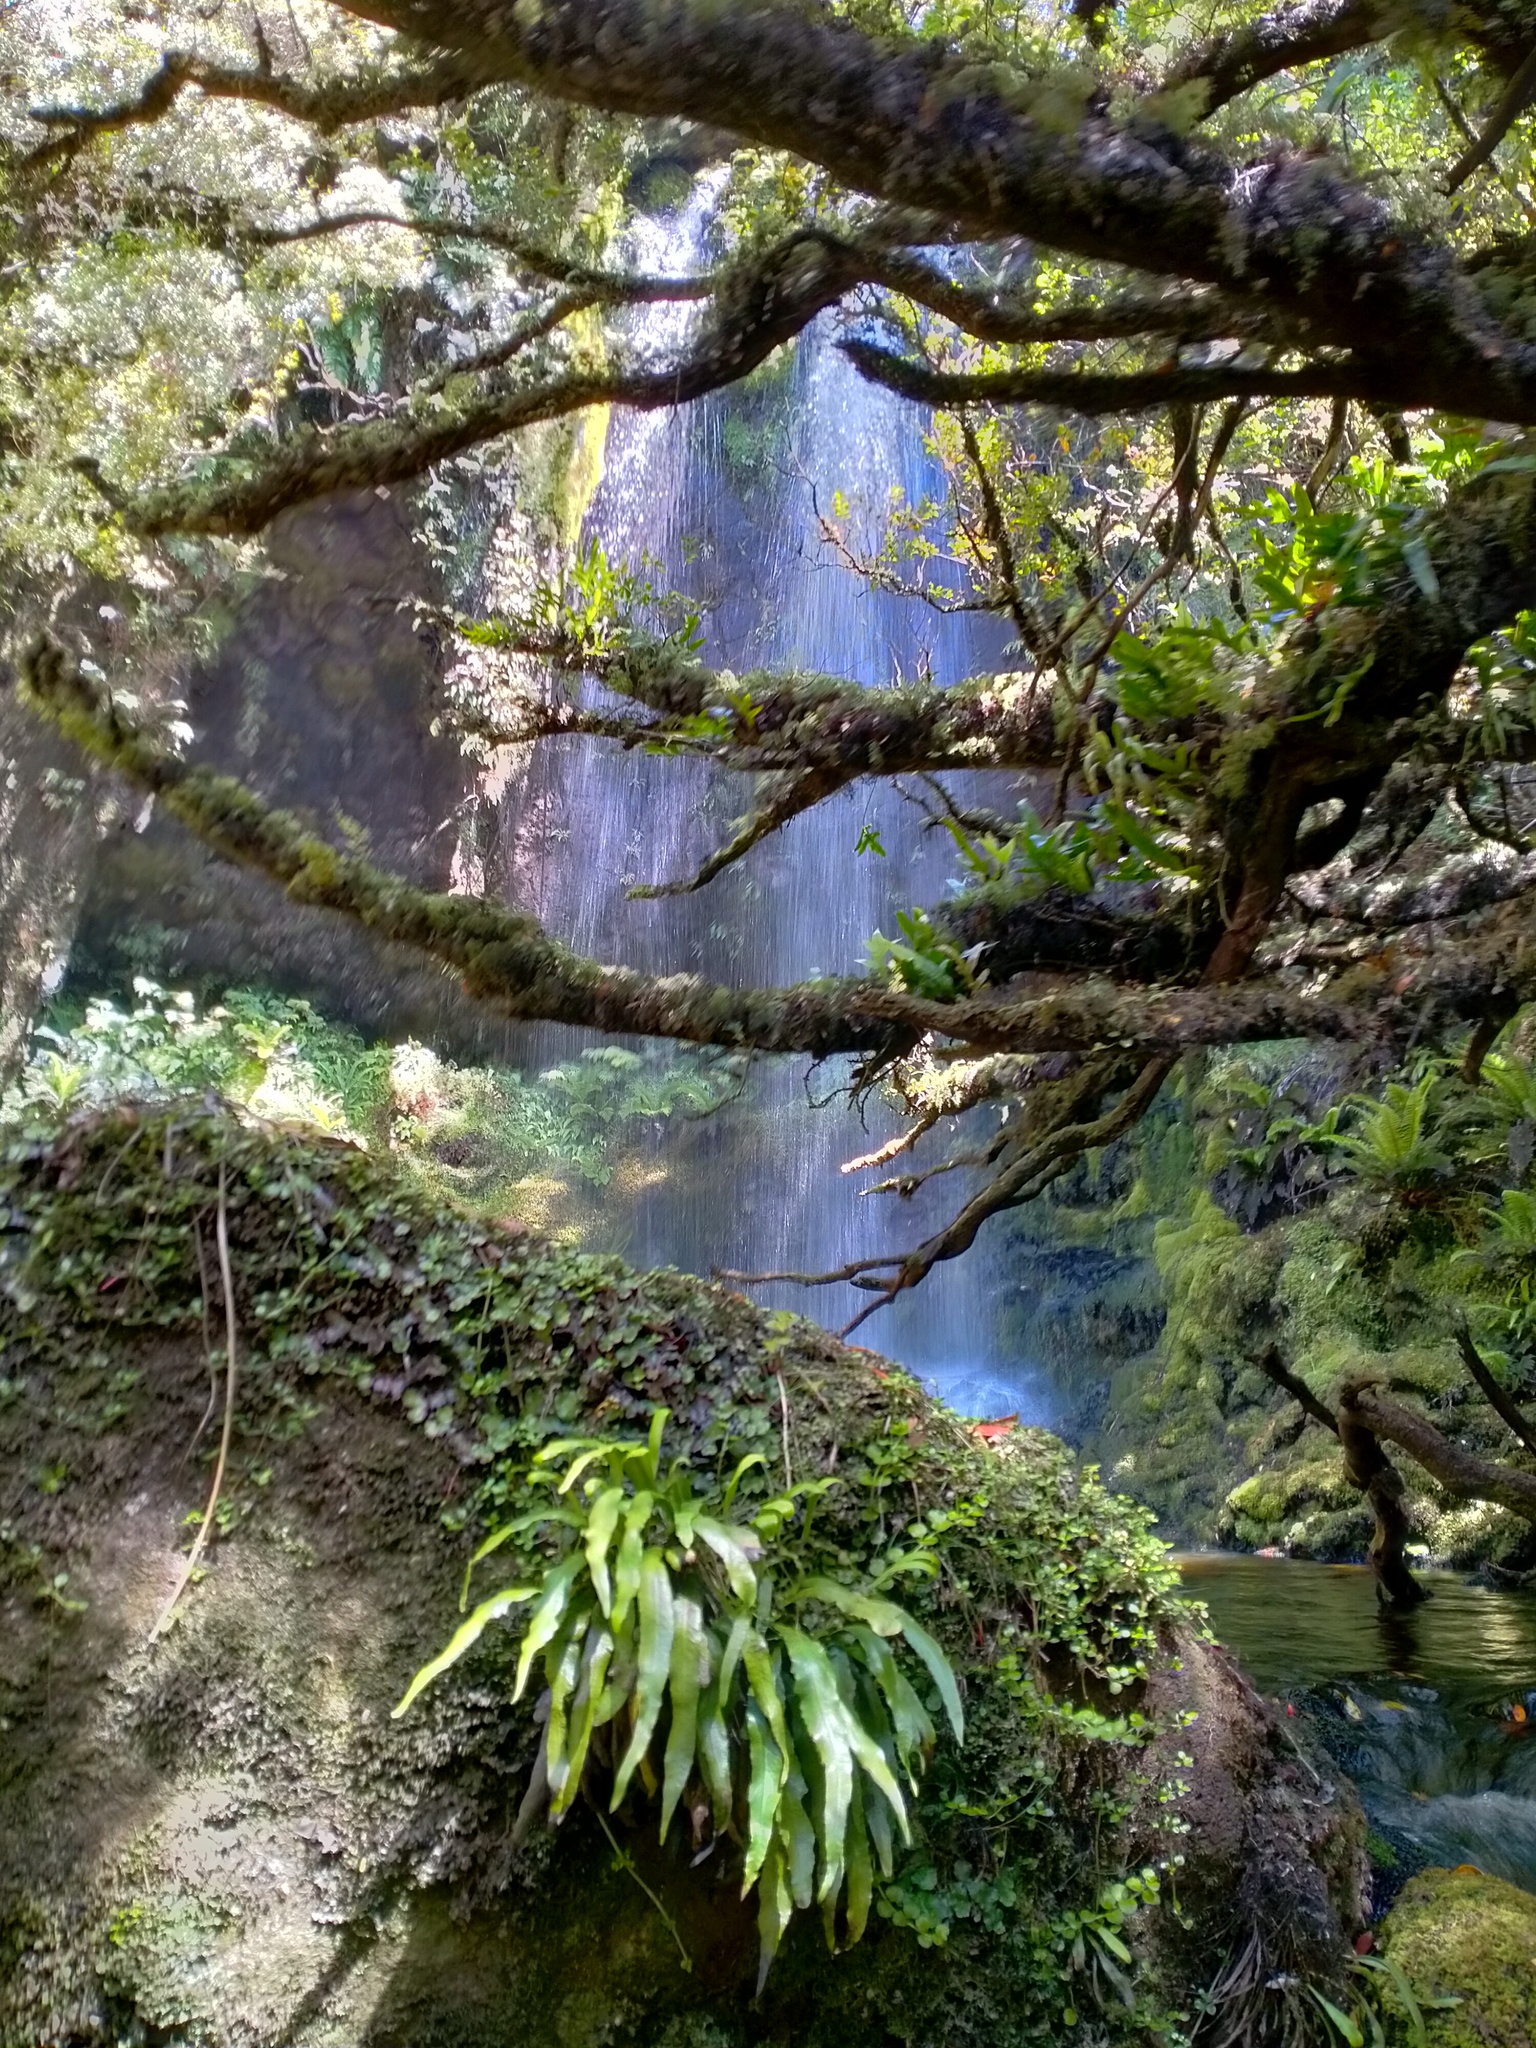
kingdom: Plantae
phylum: Tracheophyta
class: Polypodiopsida
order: Polypodiales
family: Polypodiaceae
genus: Notogrammitis
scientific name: Notogrammitis rigida
